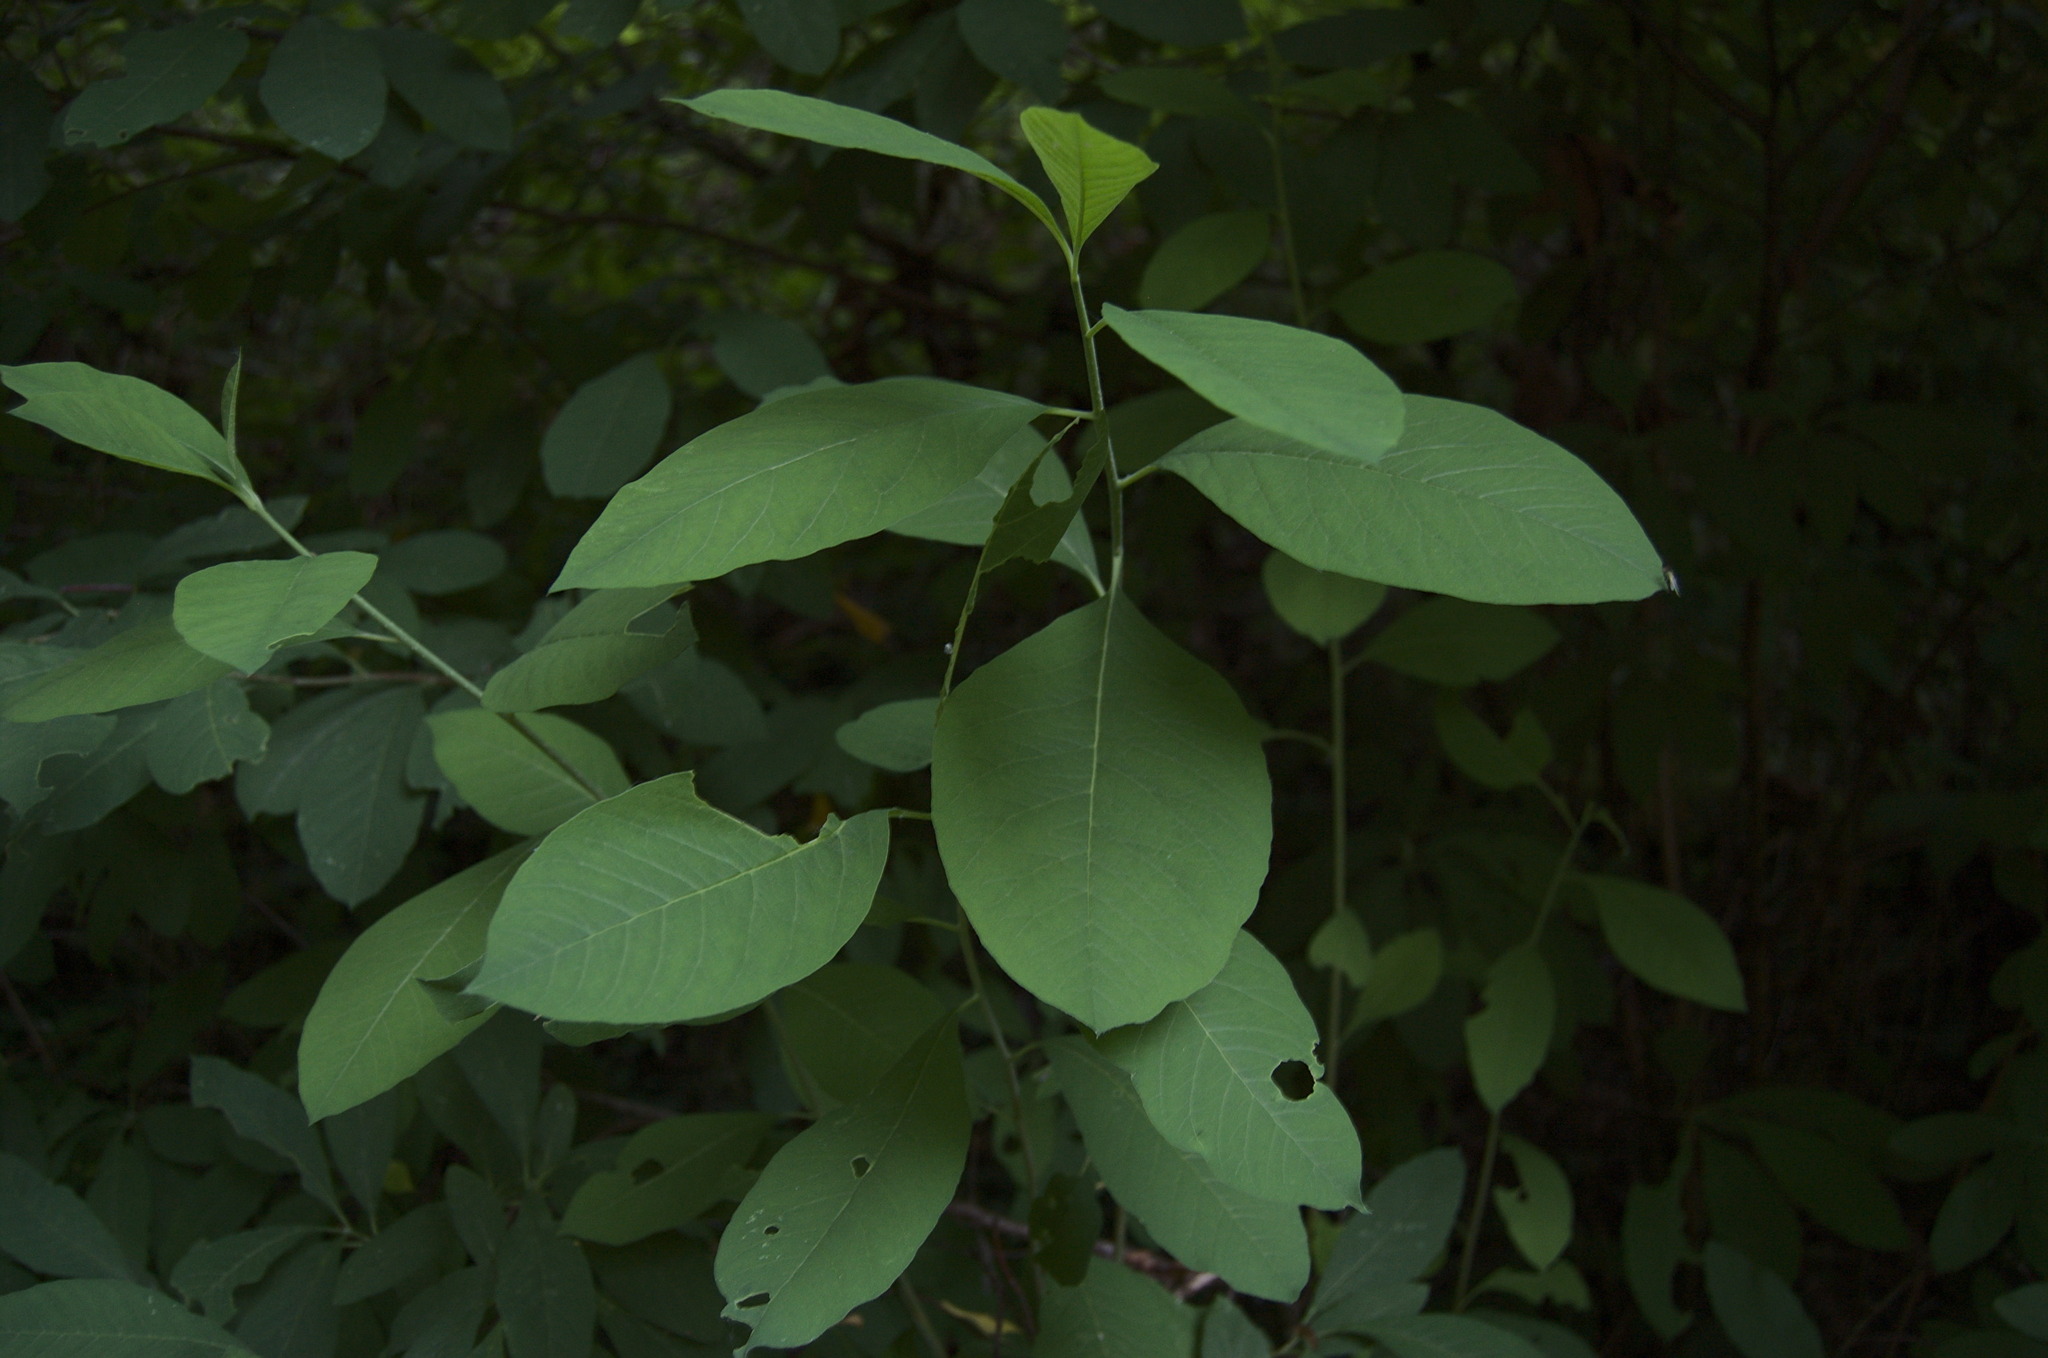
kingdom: Plantae
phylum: Tracheophyta
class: Magnoliopsida
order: Rosales
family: Rosaceae
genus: Oemleria
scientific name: Oemleria cerasiformis
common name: Osoberry
